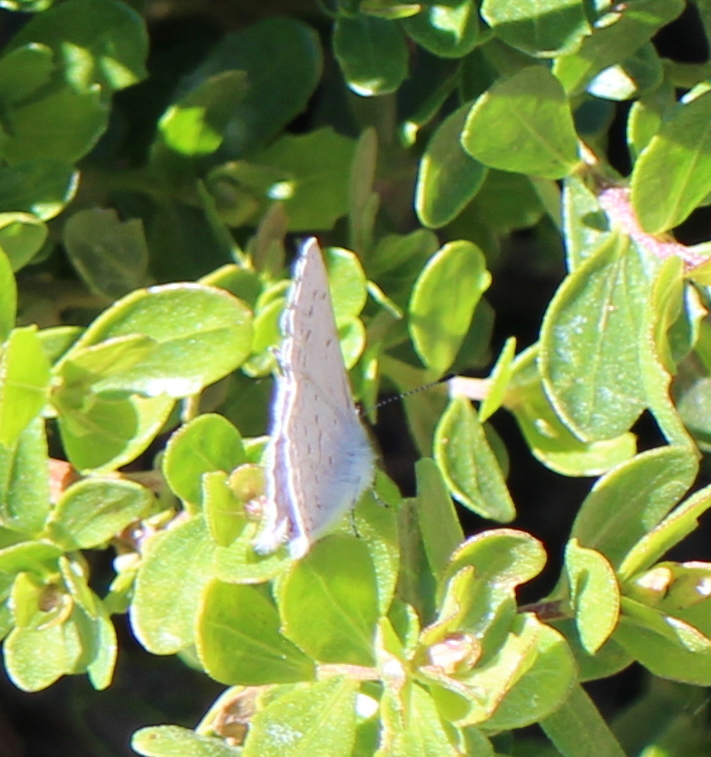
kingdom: Animalia
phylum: Arthropoda
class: Insecta
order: Lepidoptera
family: Lycaenidae
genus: Celastrina
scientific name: Celastrina ladon
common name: Spring azure
